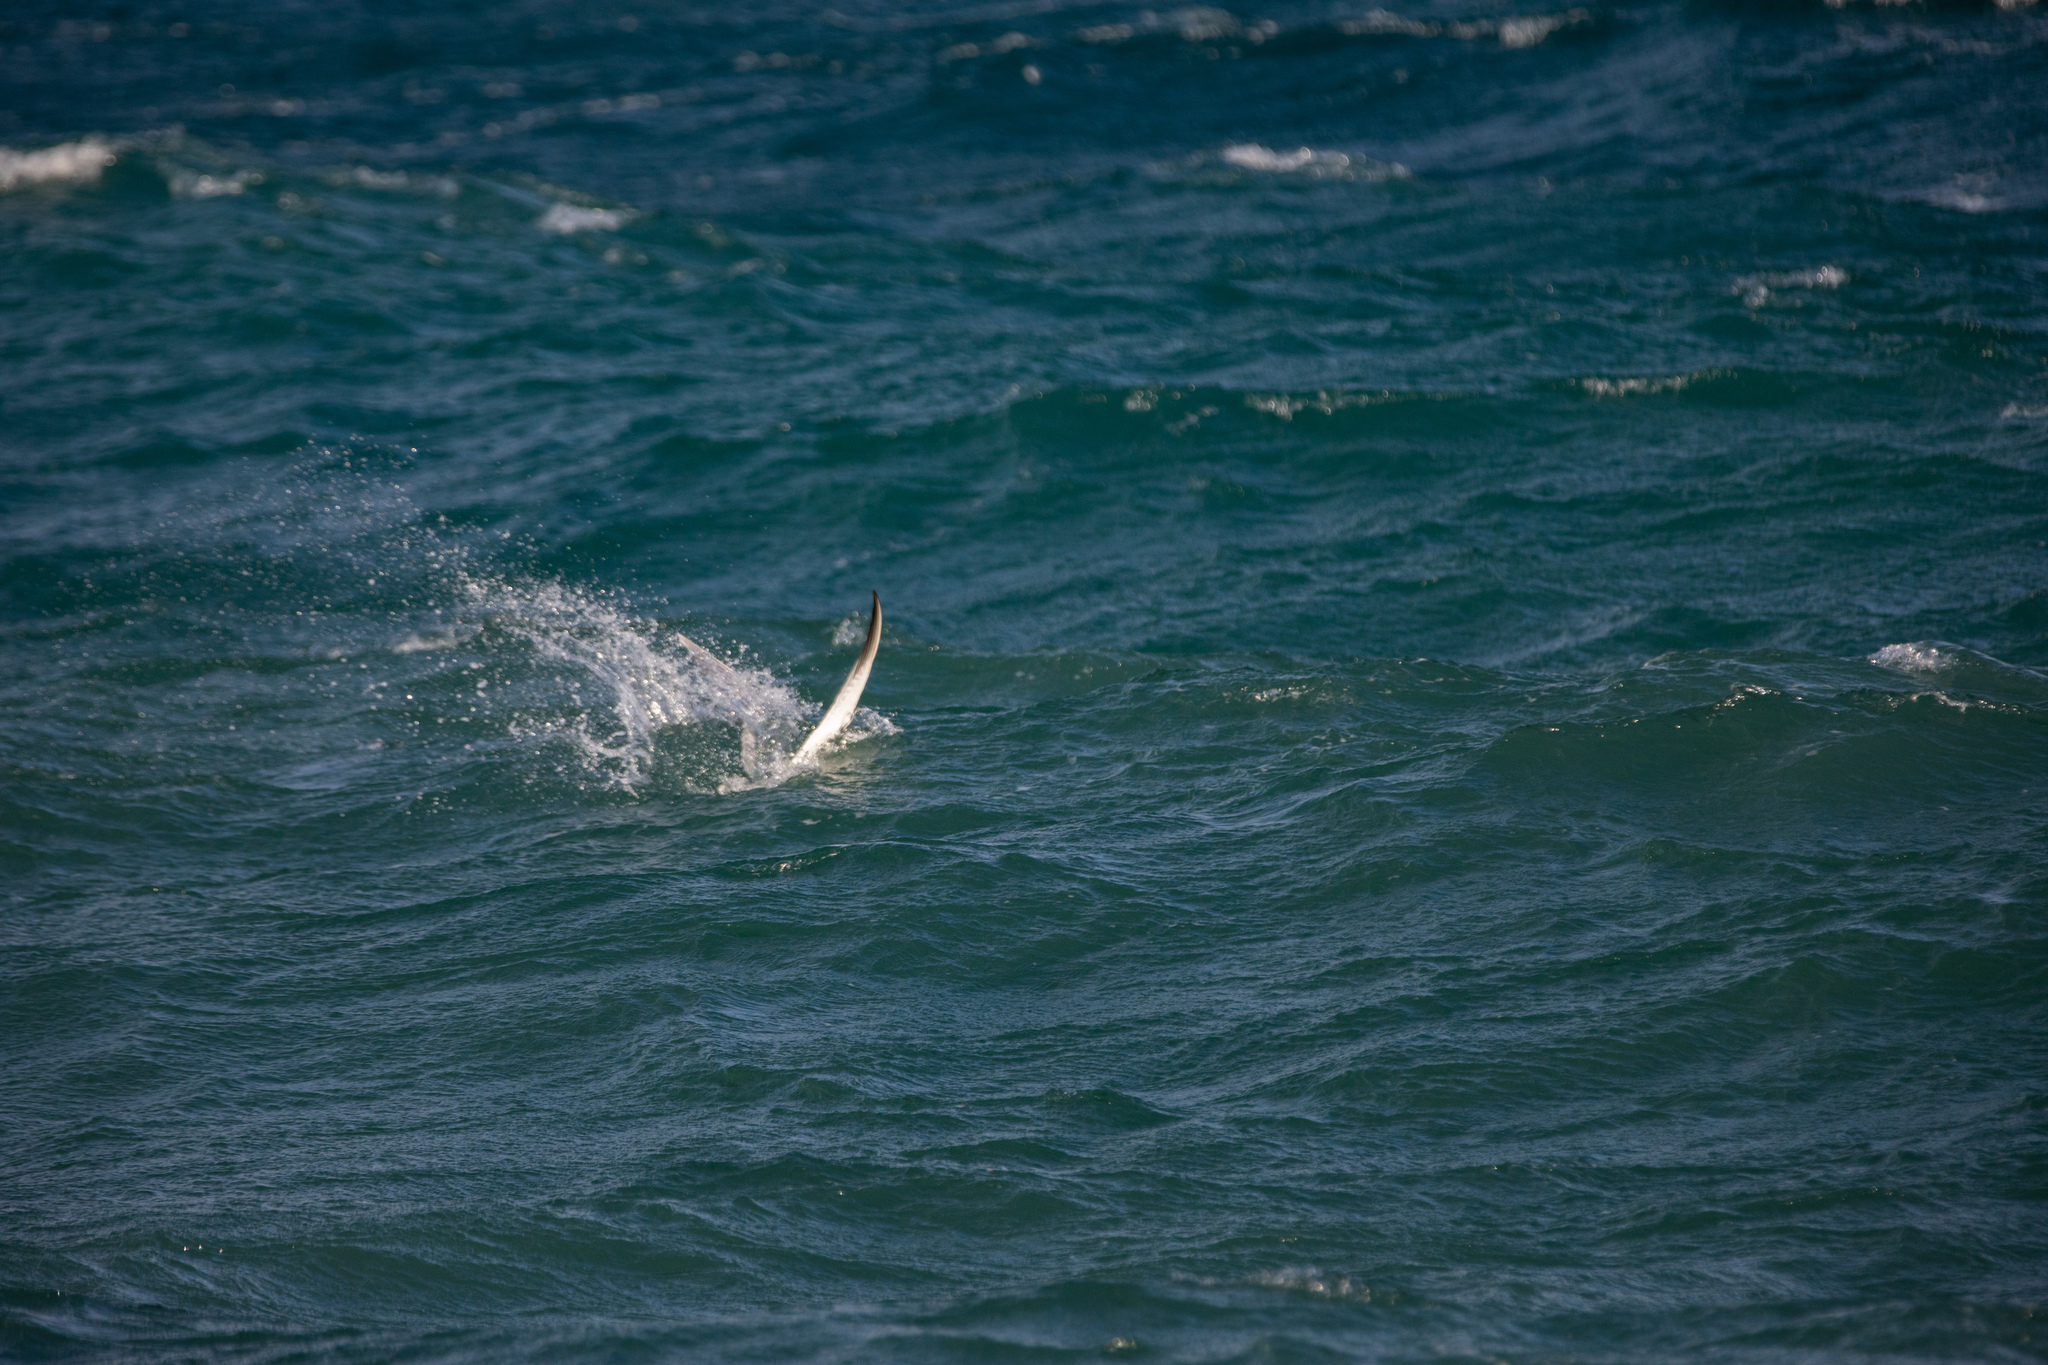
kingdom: Animalia
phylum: Chordata
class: Aves
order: Charadriiformes
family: Laridae
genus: Hydroprogne
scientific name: Hydroprogne caspia
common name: Caspian tern
